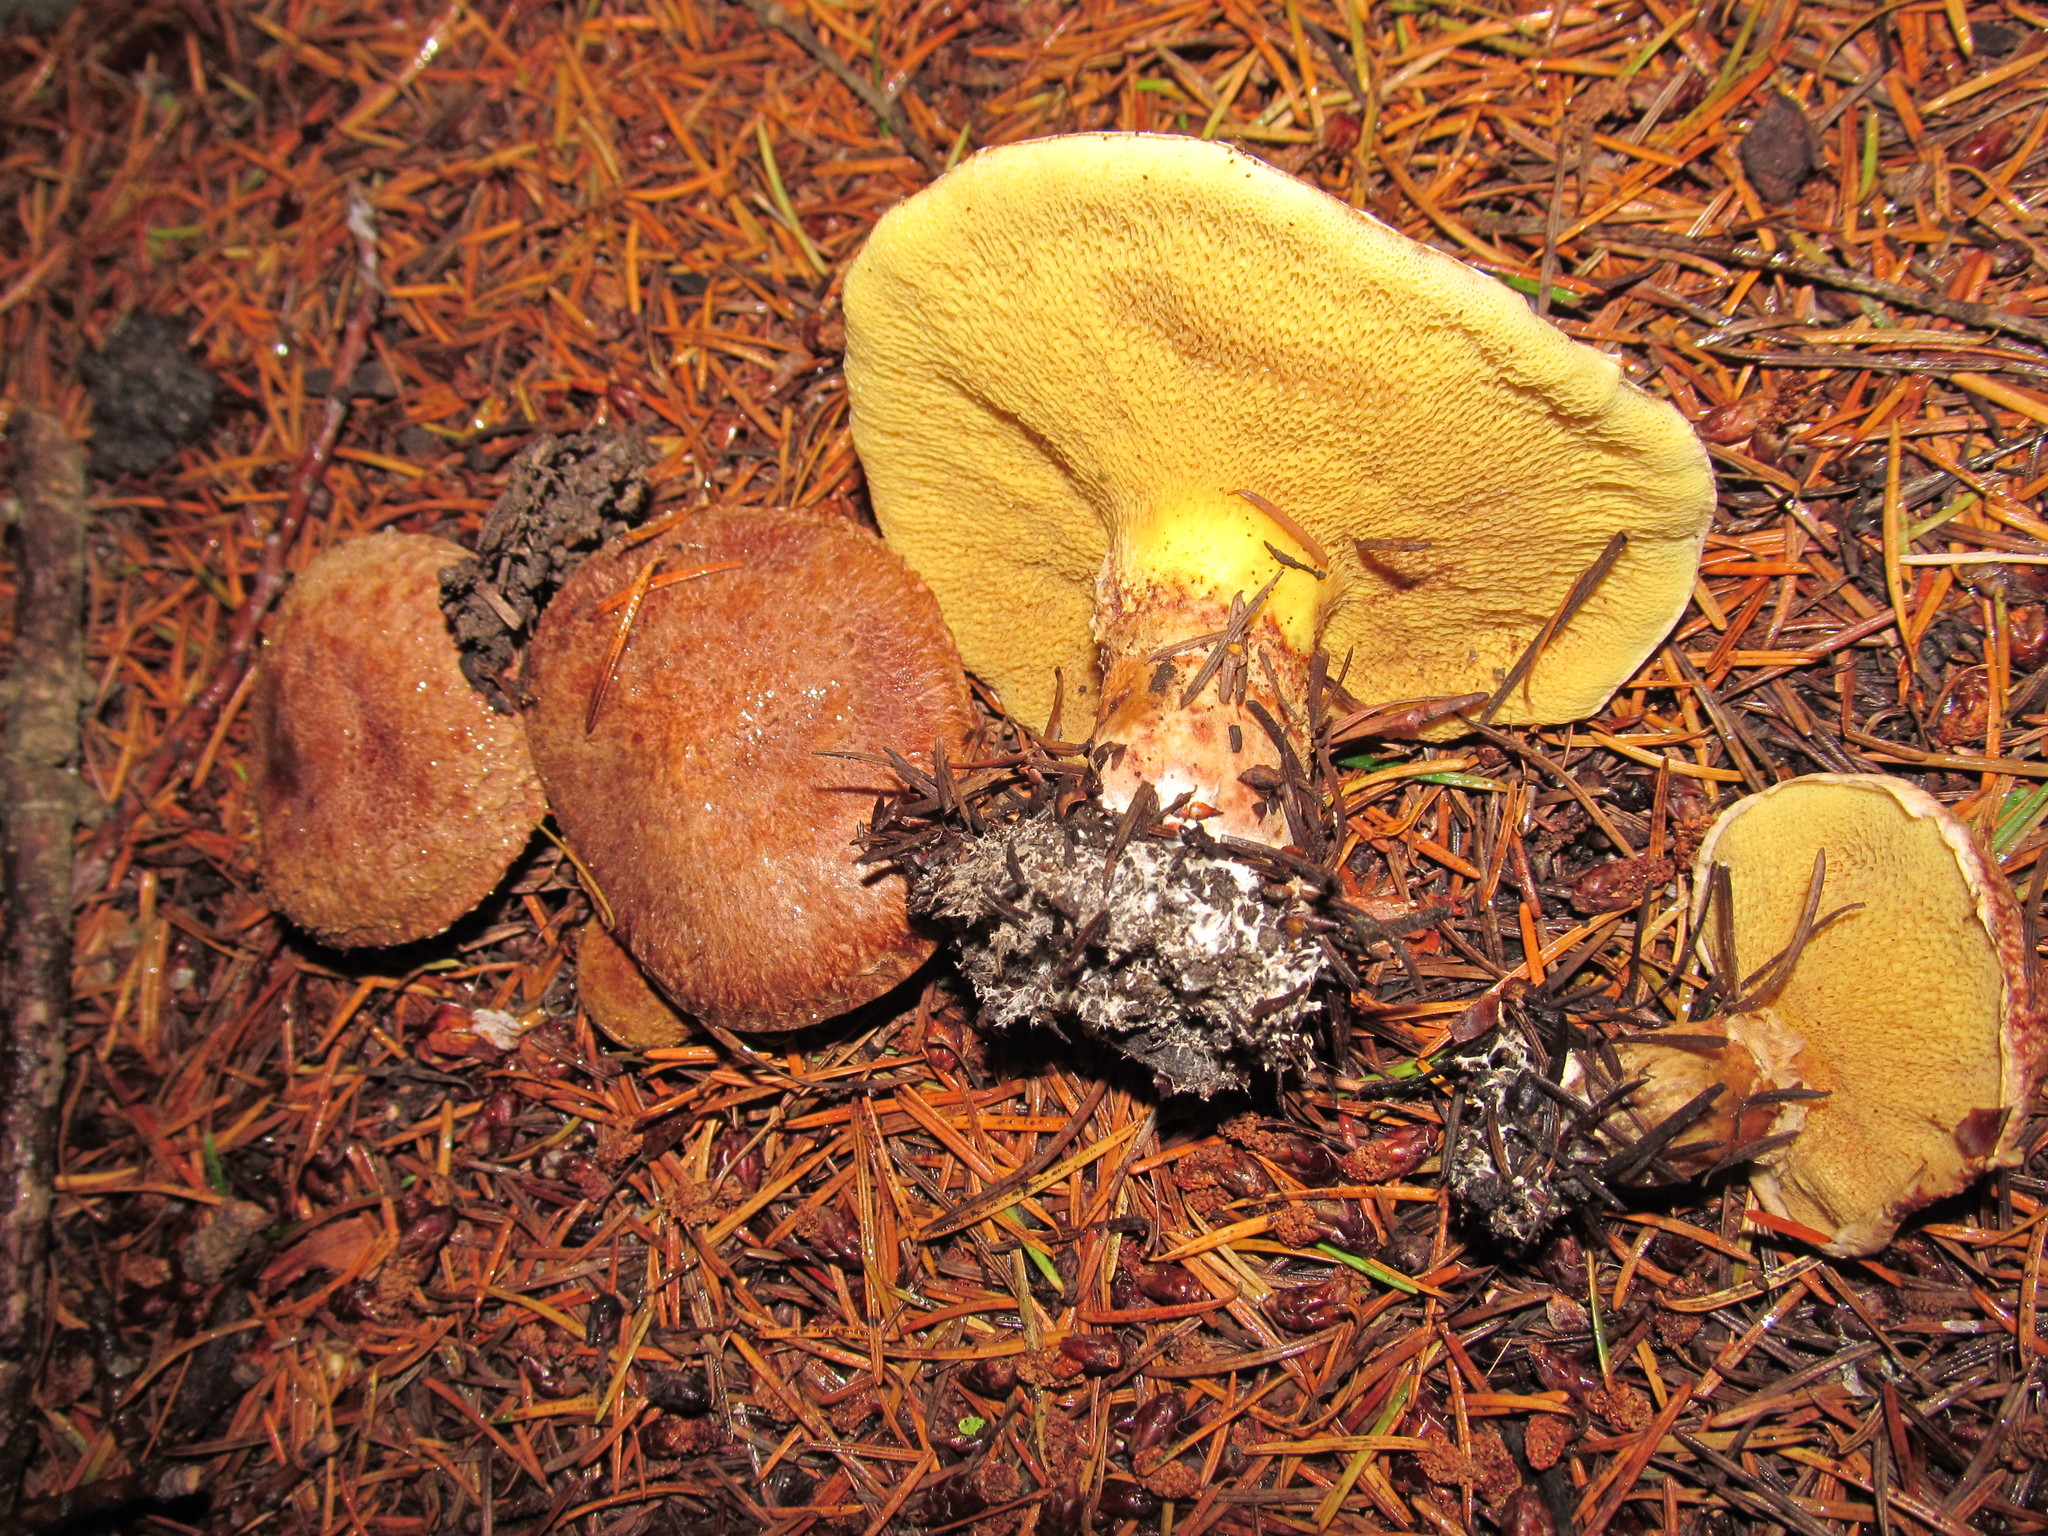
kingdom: Fungi
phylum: Basidiomycota
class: Agaricomycetes
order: Boletales
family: Suillaceae
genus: Suillus
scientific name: Suillus lakei
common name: Western painted suillus
